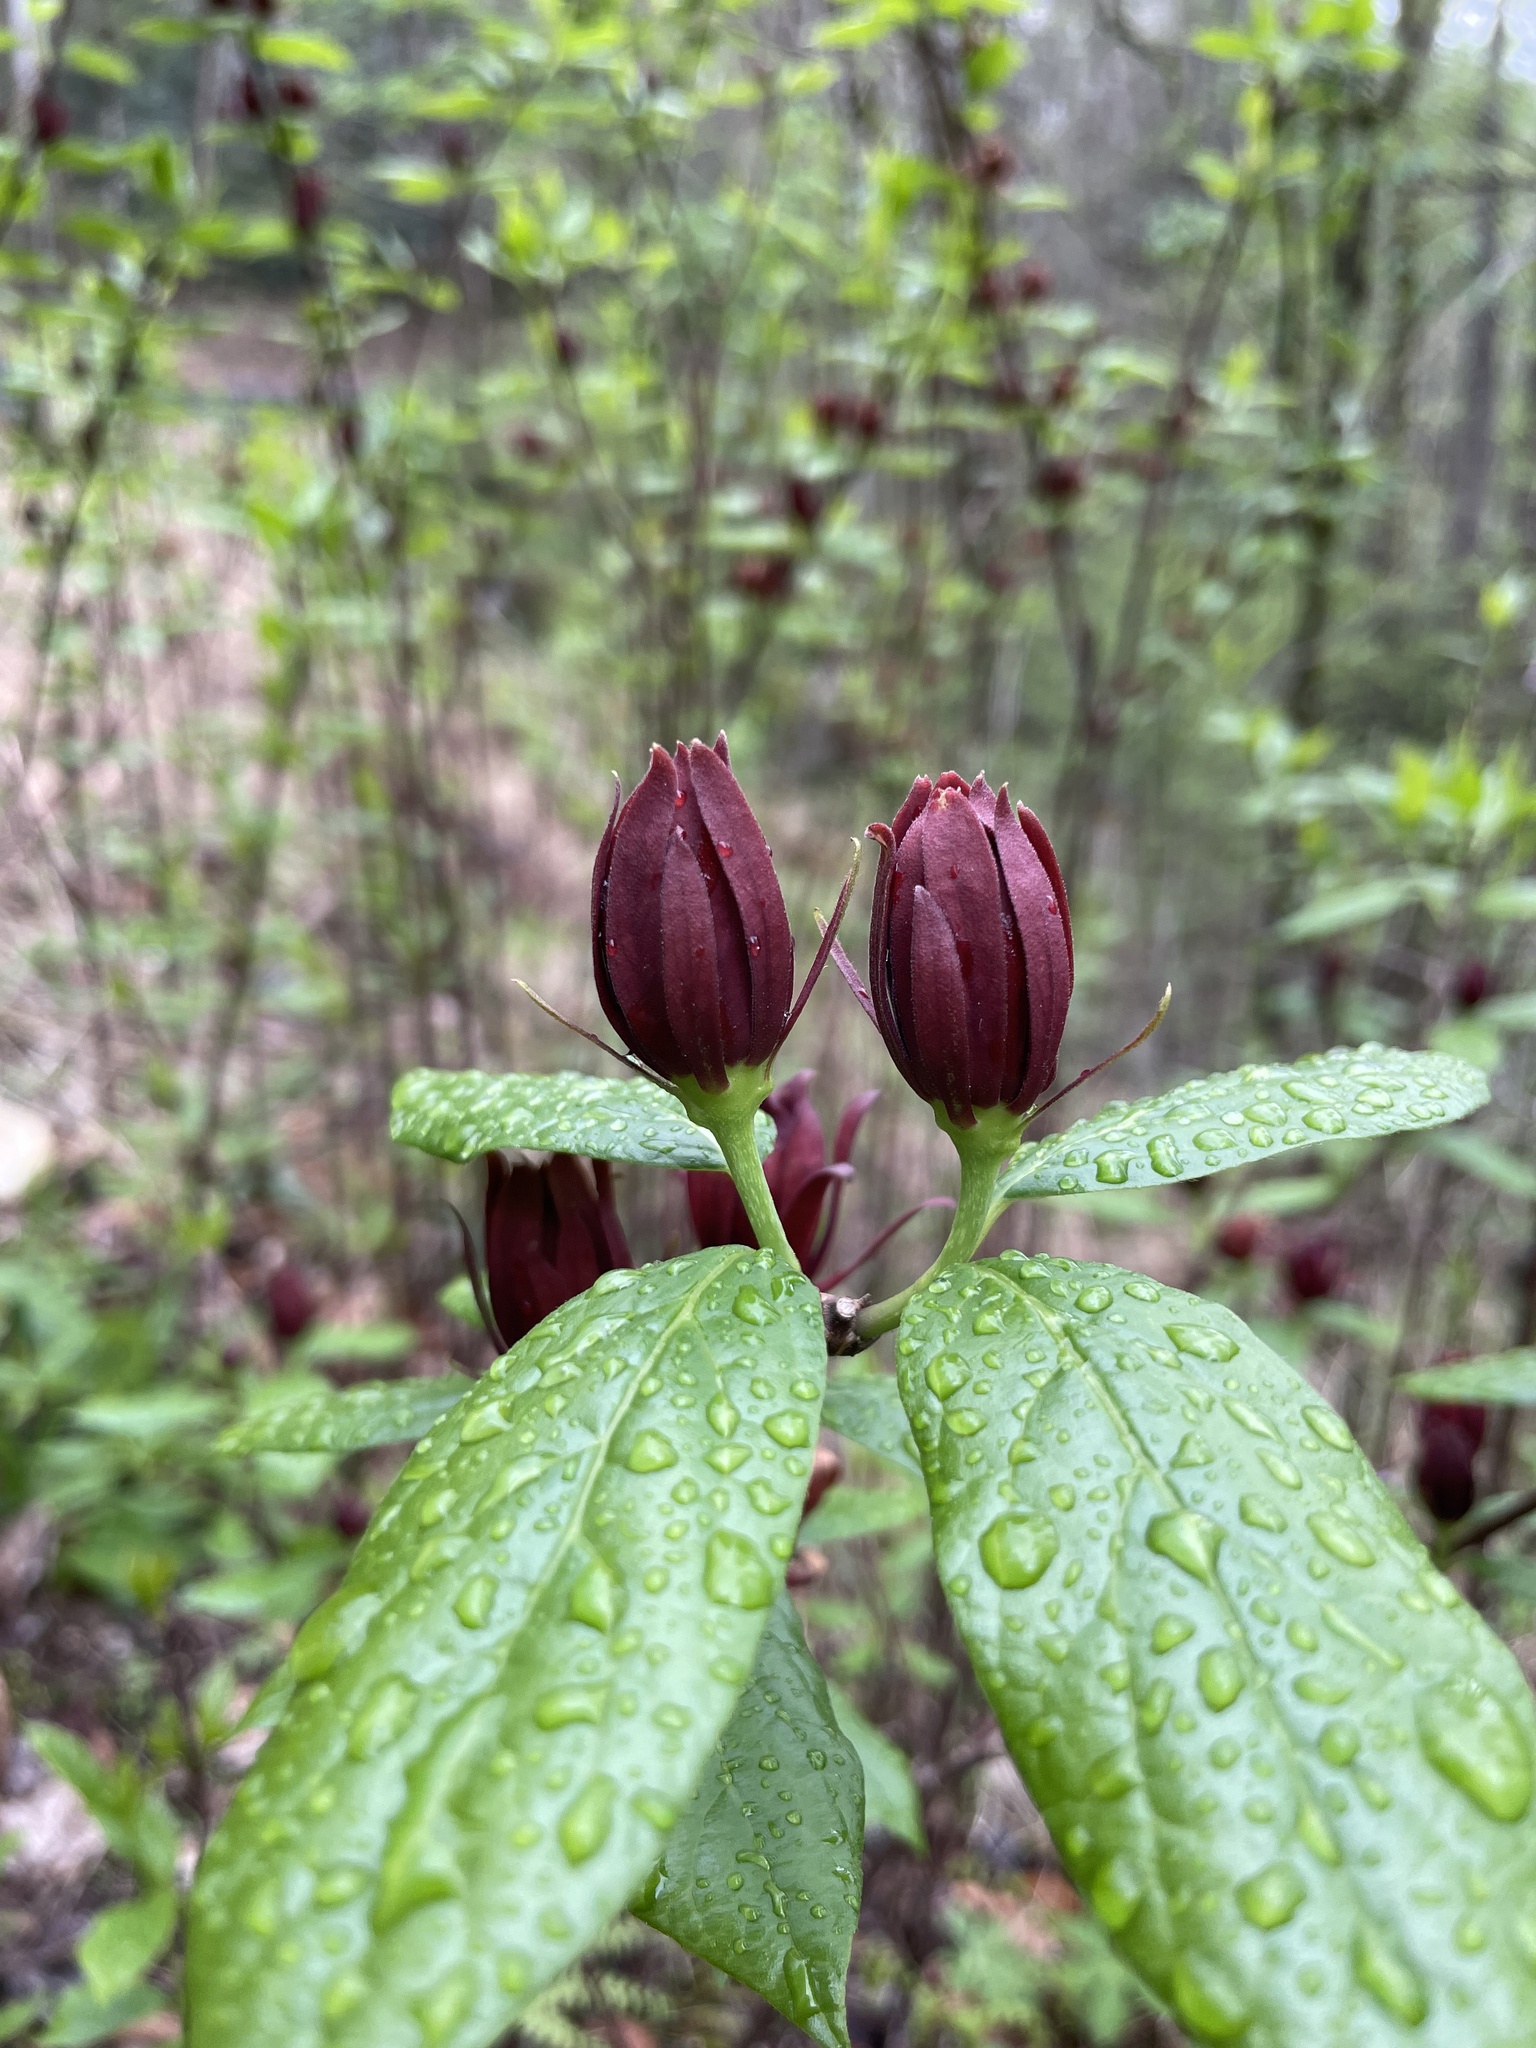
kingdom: Plantae
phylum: Tracheophyta
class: Magnoliopsida
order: Laurales
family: Calycanthaceae
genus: Calycanthus
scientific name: Calycanthus floridus
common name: Carolina-allspice
